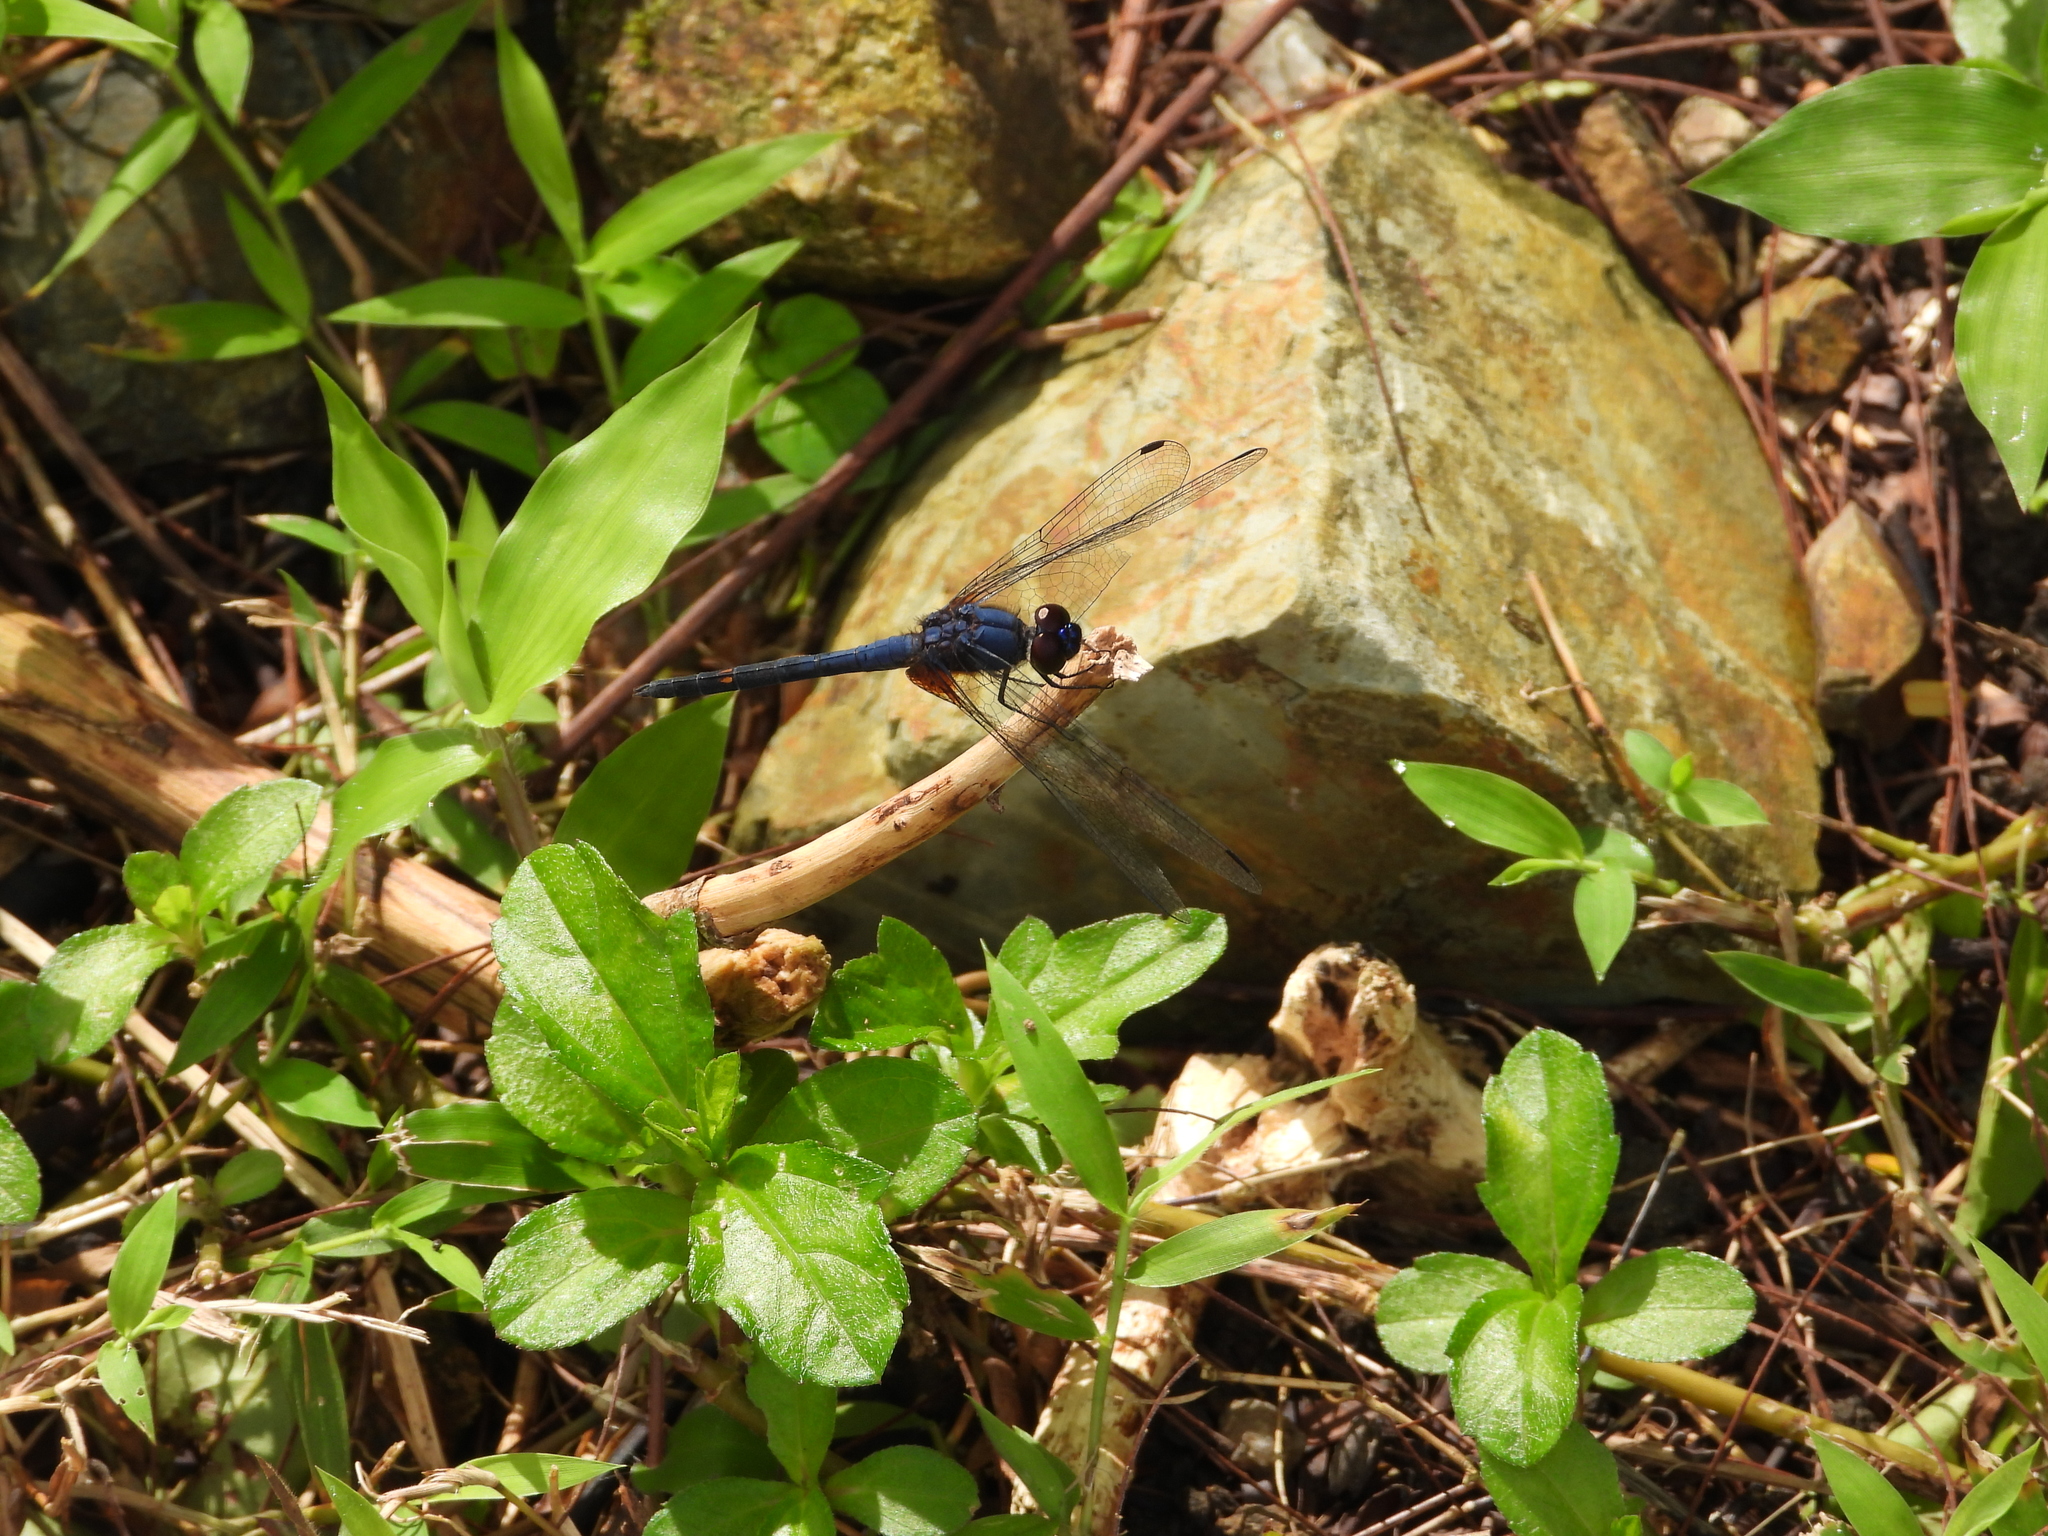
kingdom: Animalia
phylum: Arthropoda
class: Insecta
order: Odonata
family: Libellulidae
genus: Trithemis
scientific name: Trithemis festiva
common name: Indigo dropwing
